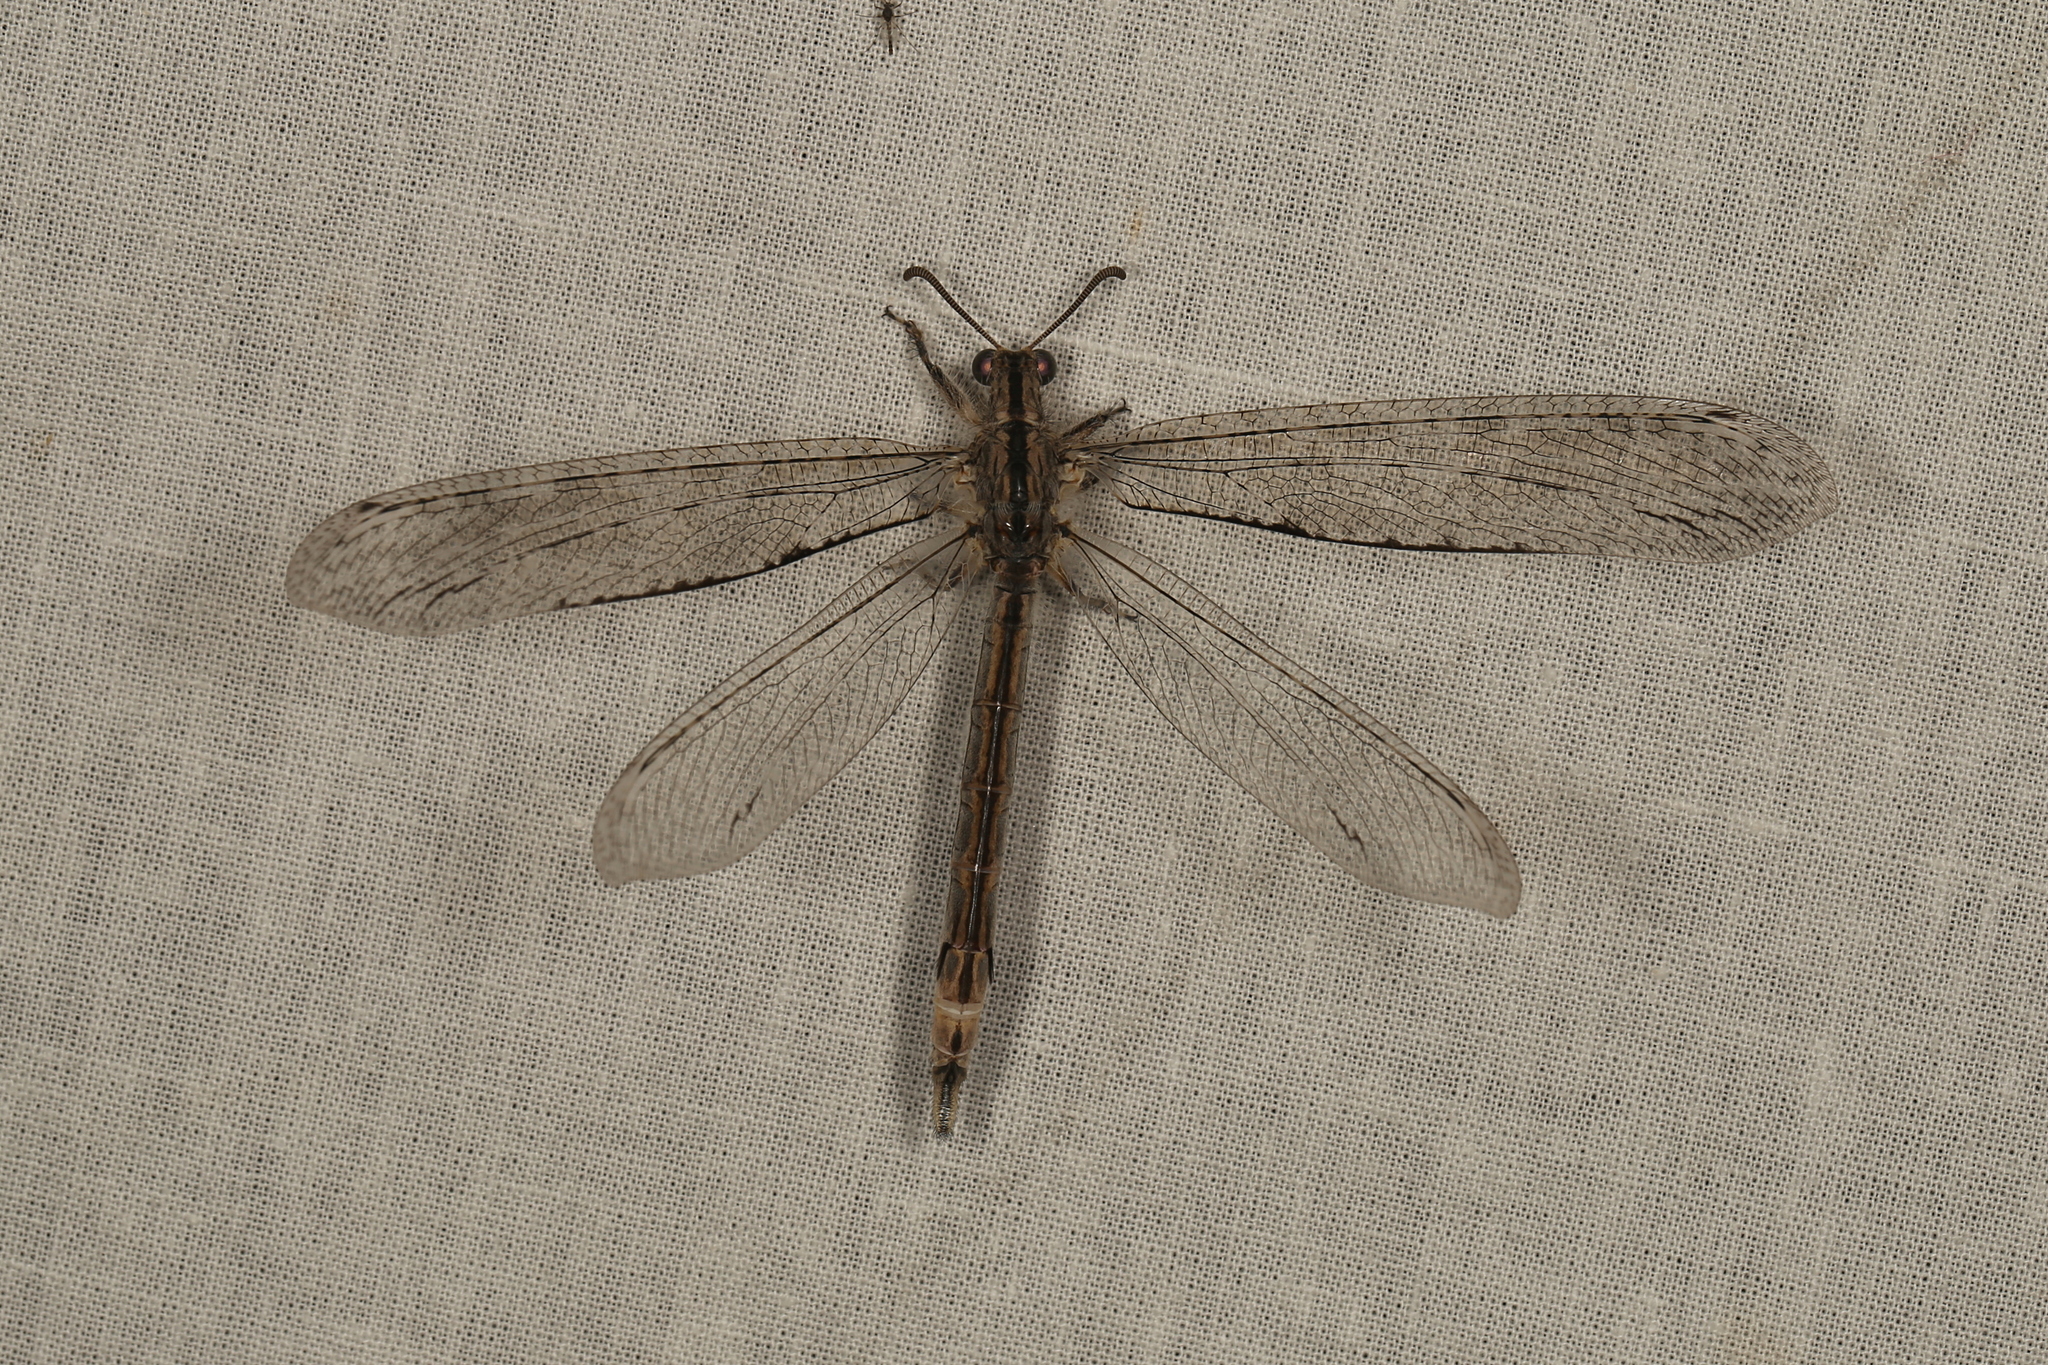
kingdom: Animalia
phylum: Arthropoda
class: Insecta
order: Neuroptera
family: Myrmeleontidae
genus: Heoclisis
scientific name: Heoclisis fundata
